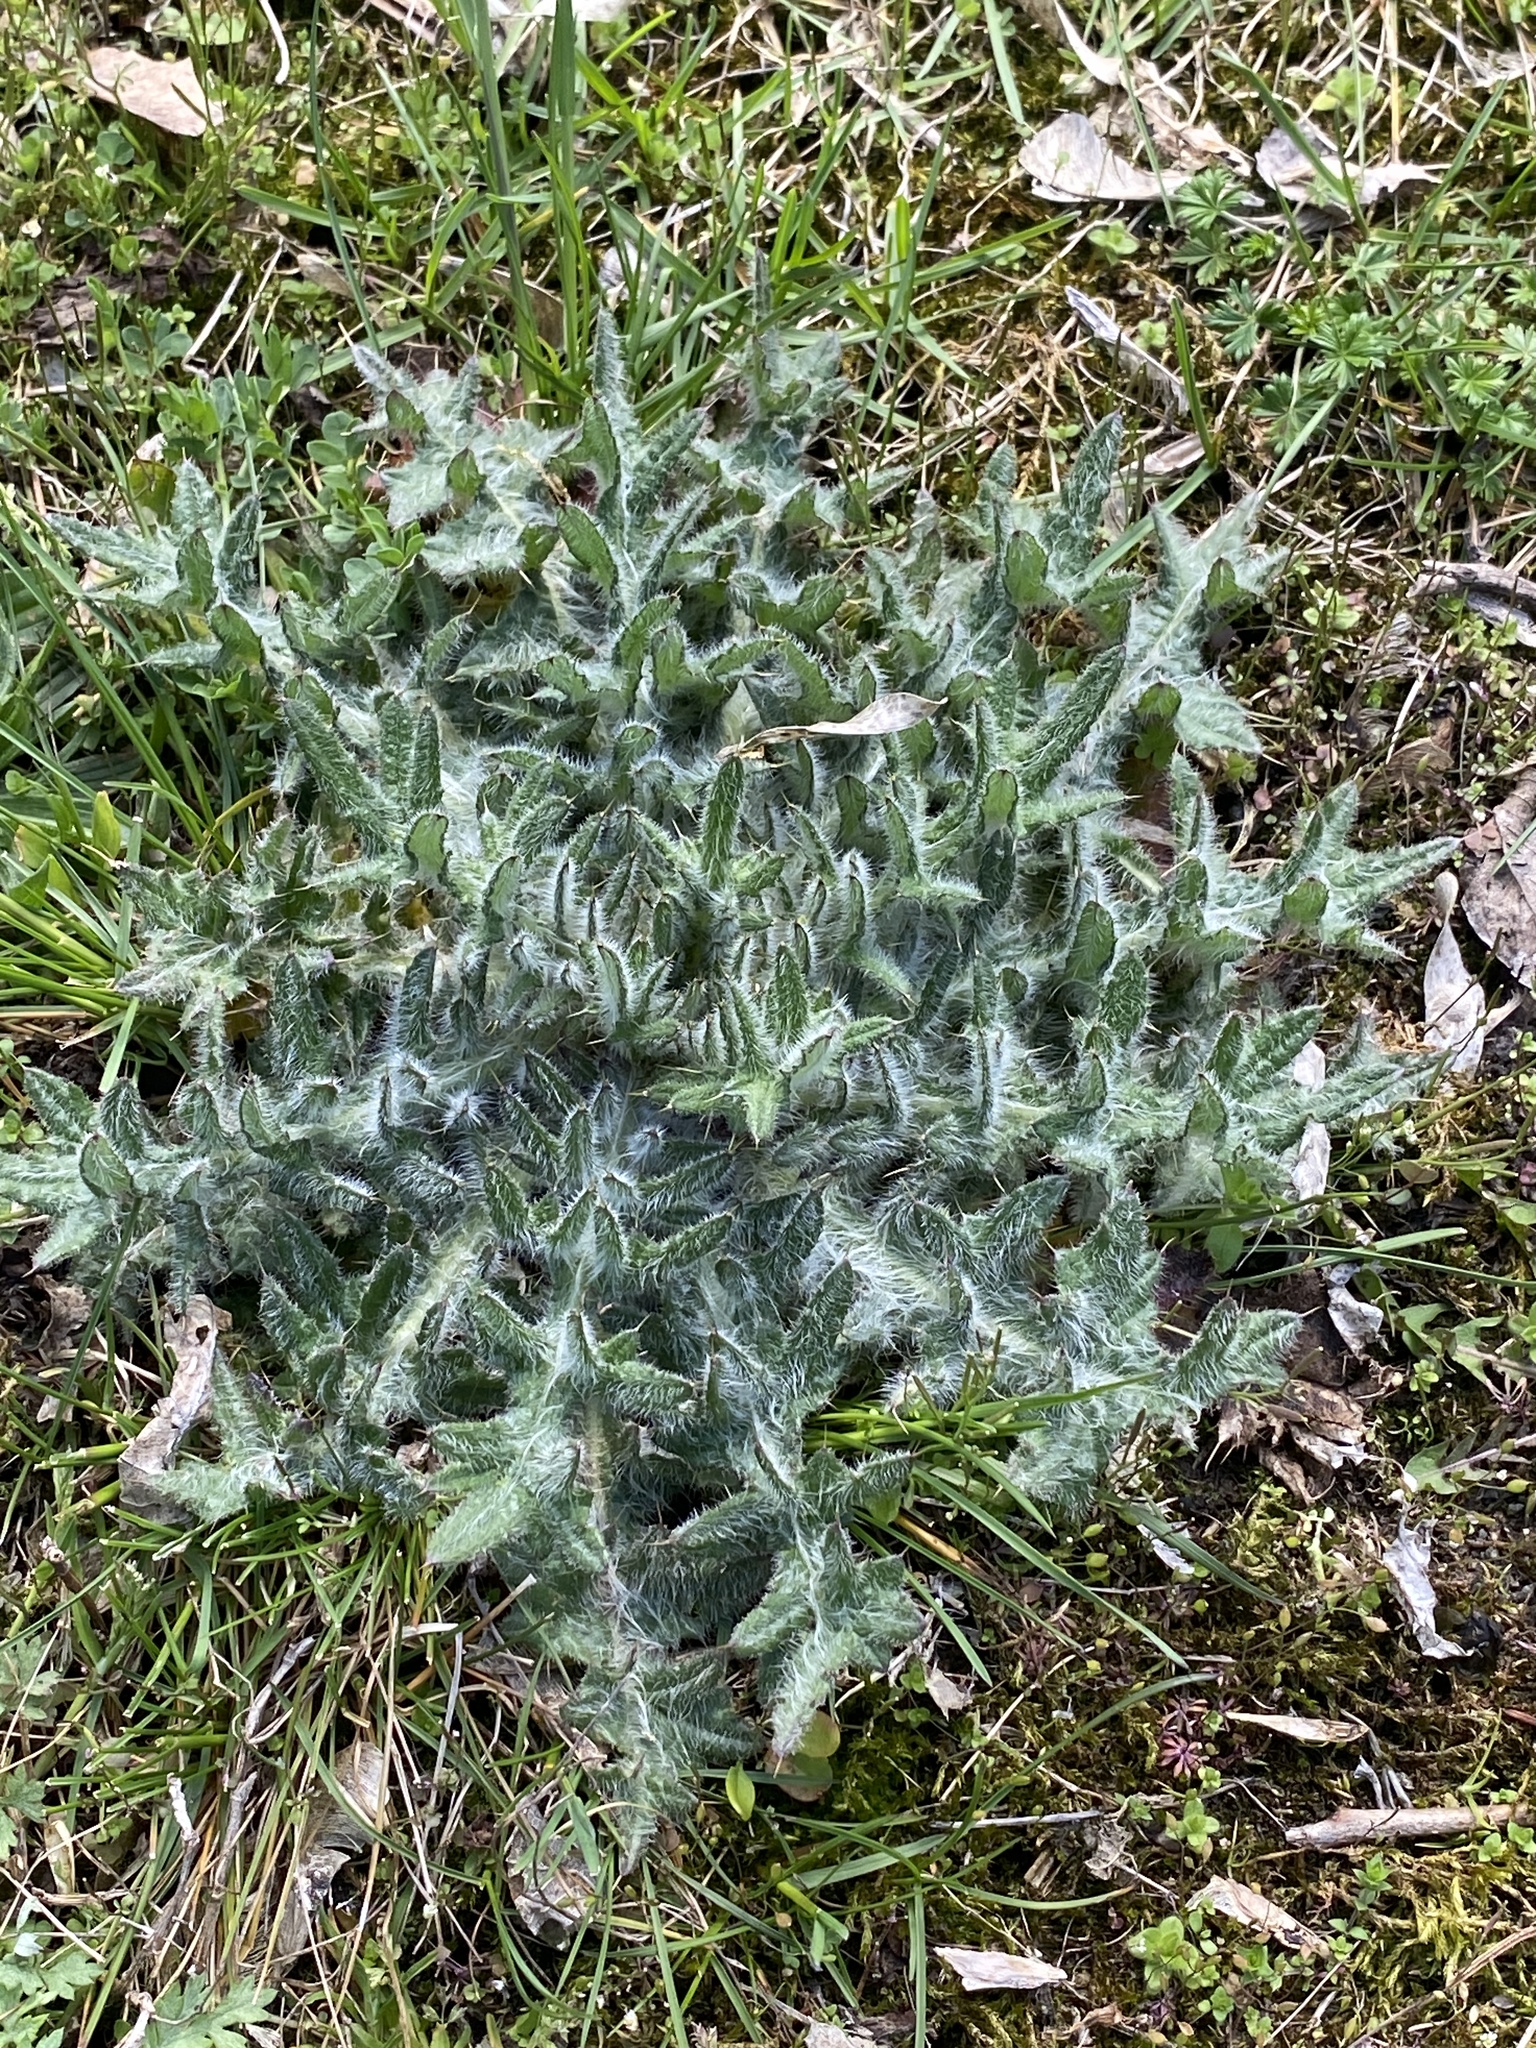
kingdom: Plantae
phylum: Tracheophyta
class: Magnoliopsida
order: Asterales
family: Asteraceae
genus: Cirsium
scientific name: Cirsium vulgare
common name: Bull thistle
